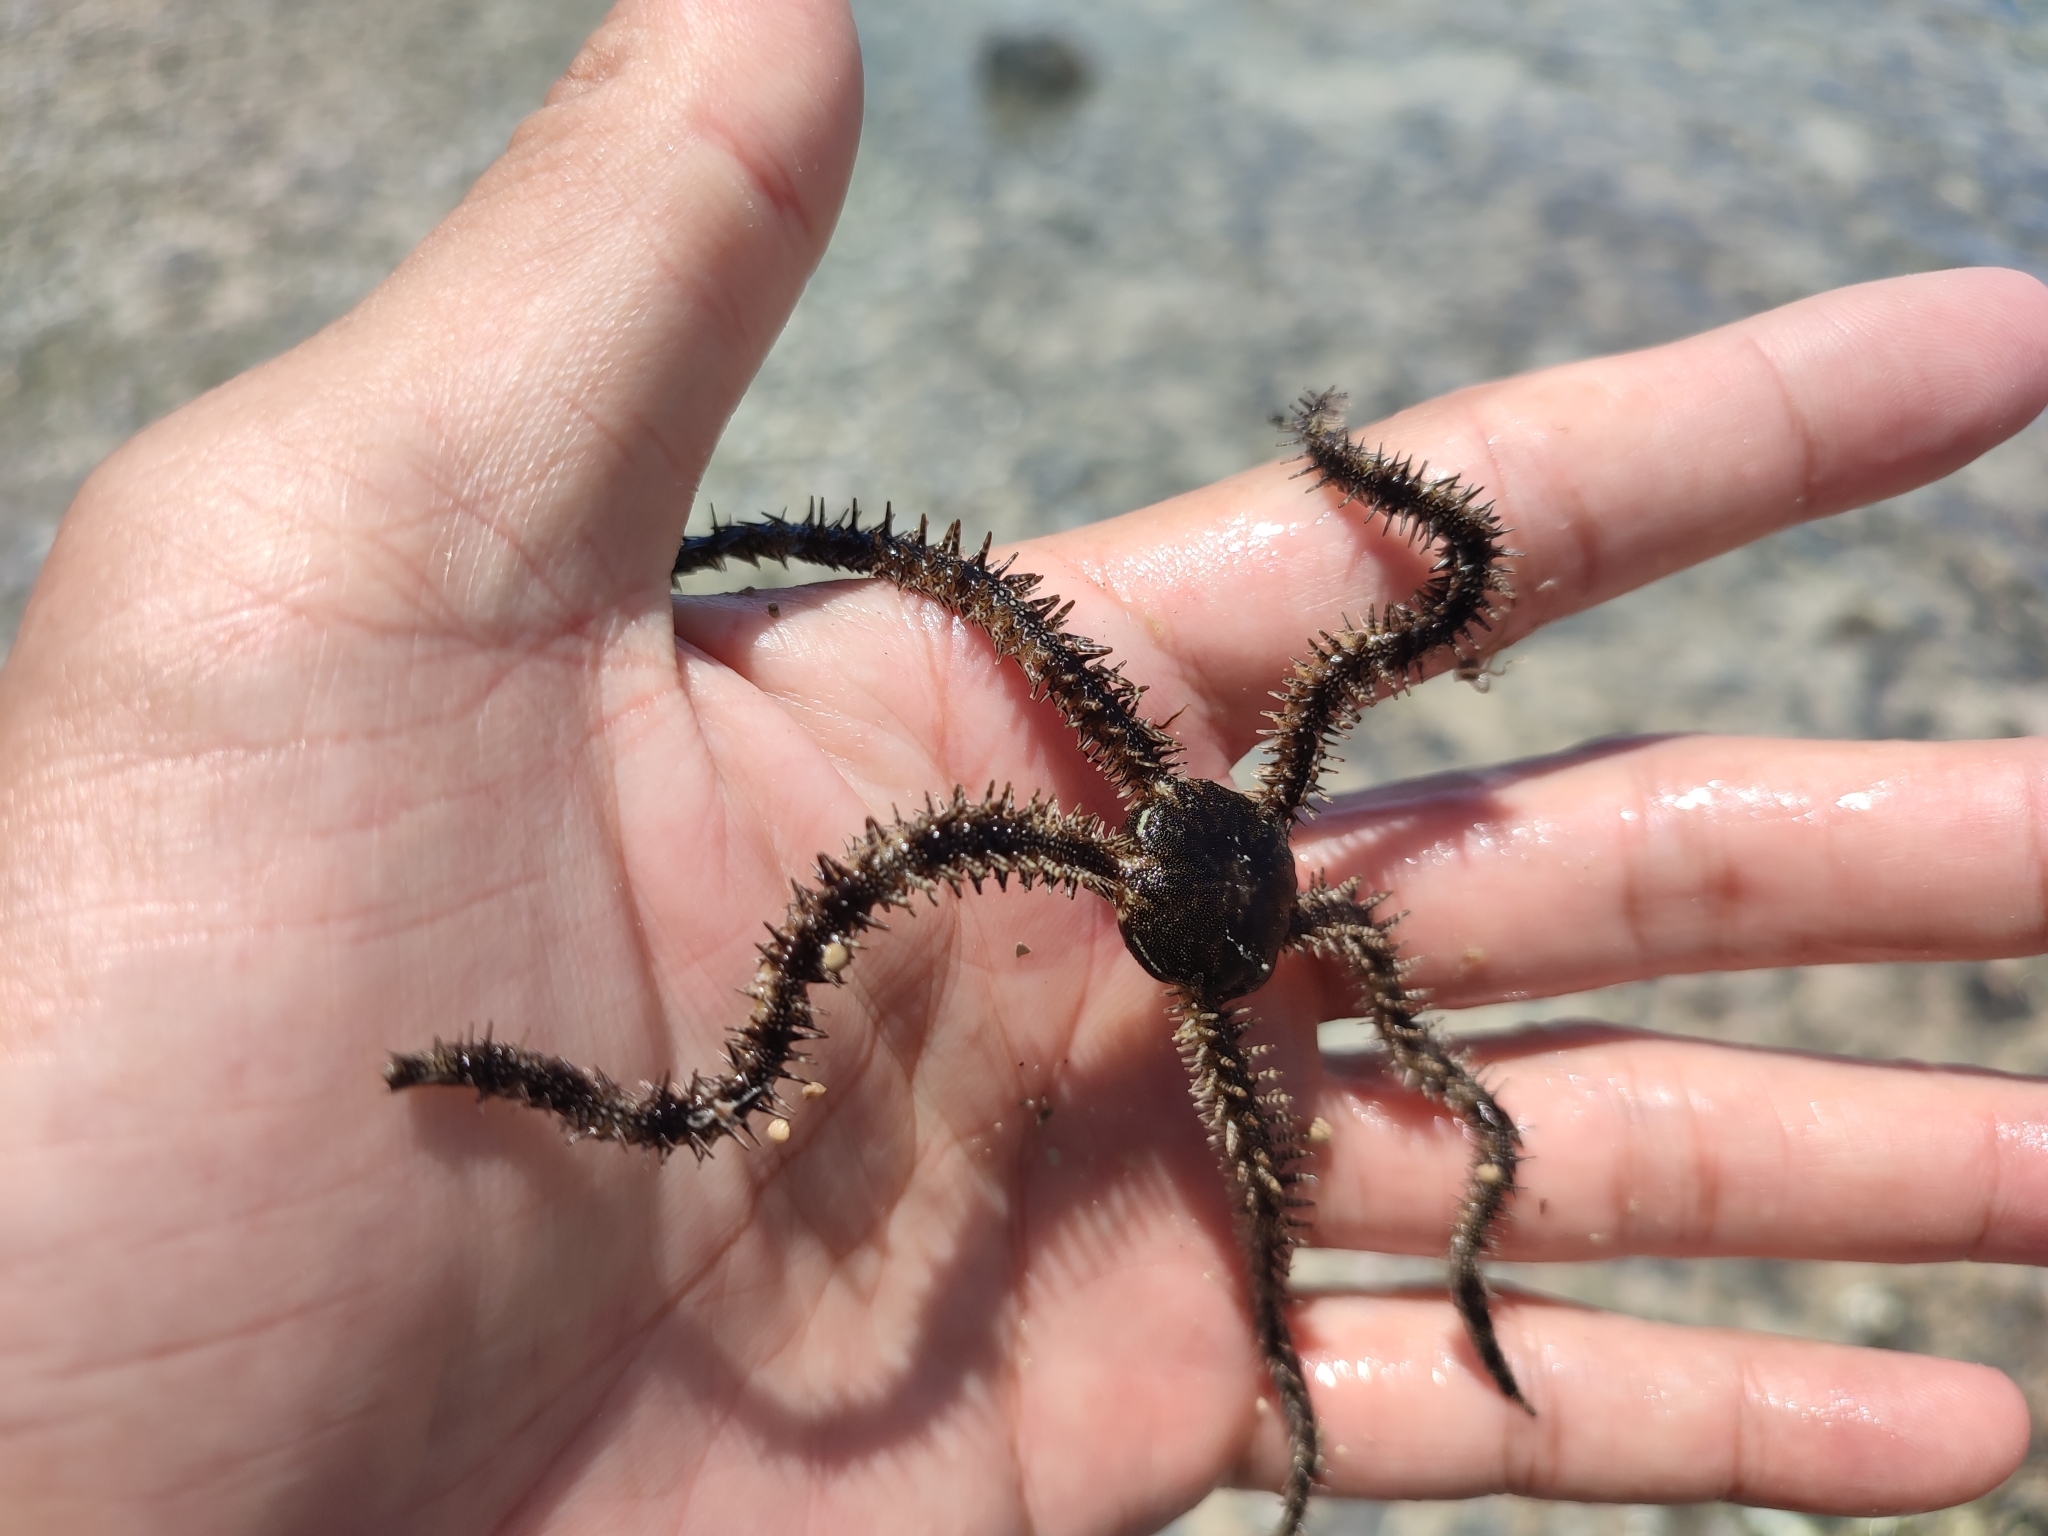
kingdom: Animalia
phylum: Echinodermata
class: Ophiuroidea
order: Ophiacanthida
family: Ophiocomidae
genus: Ophiocoma
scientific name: Ophiocoma scolopendrina
